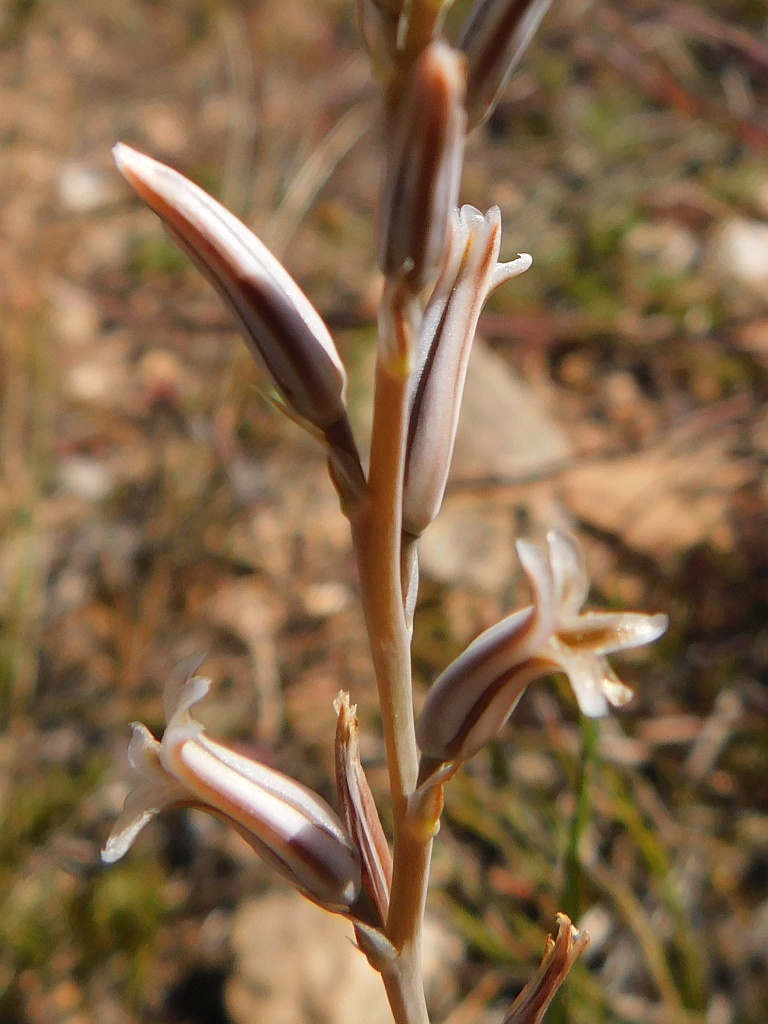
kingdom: Plantae
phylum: Tracheophyta
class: Liliopsida
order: Asparagales
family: Asphodelaceae
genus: Haworthia
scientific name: Haworthia mirabilis
